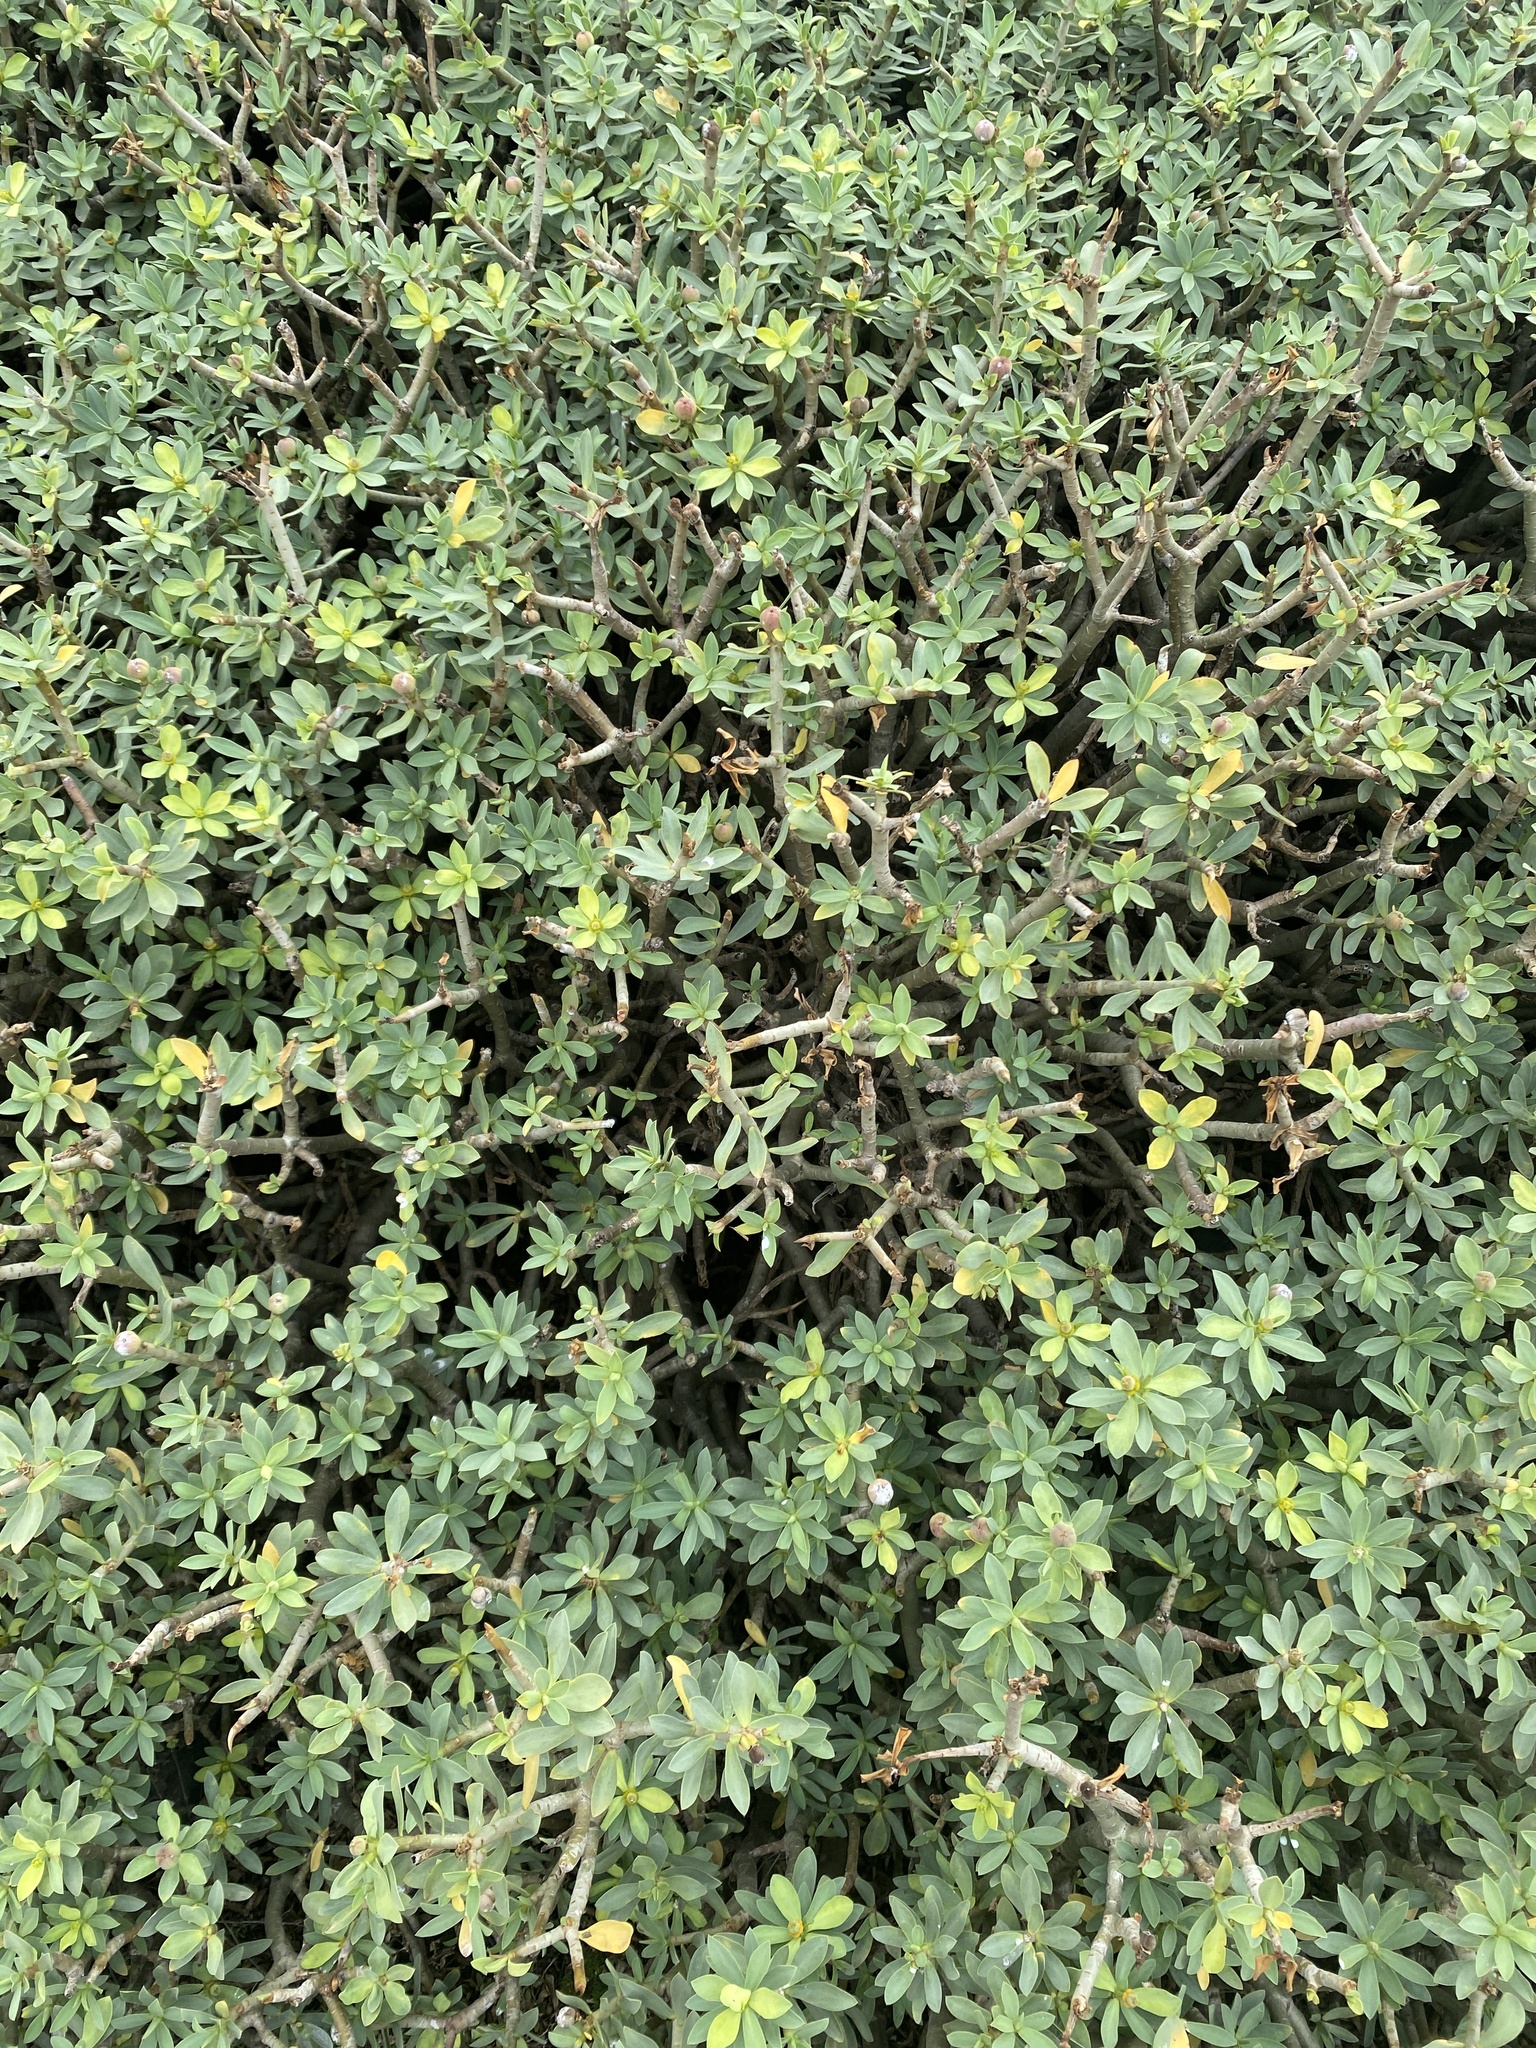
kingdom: Plantae
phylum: Tracheophyta
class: Magnoliopsida
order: Malpighiales
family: Euphorbiaceae
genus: Euphorbia
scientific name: Euphorbia balsamifera
